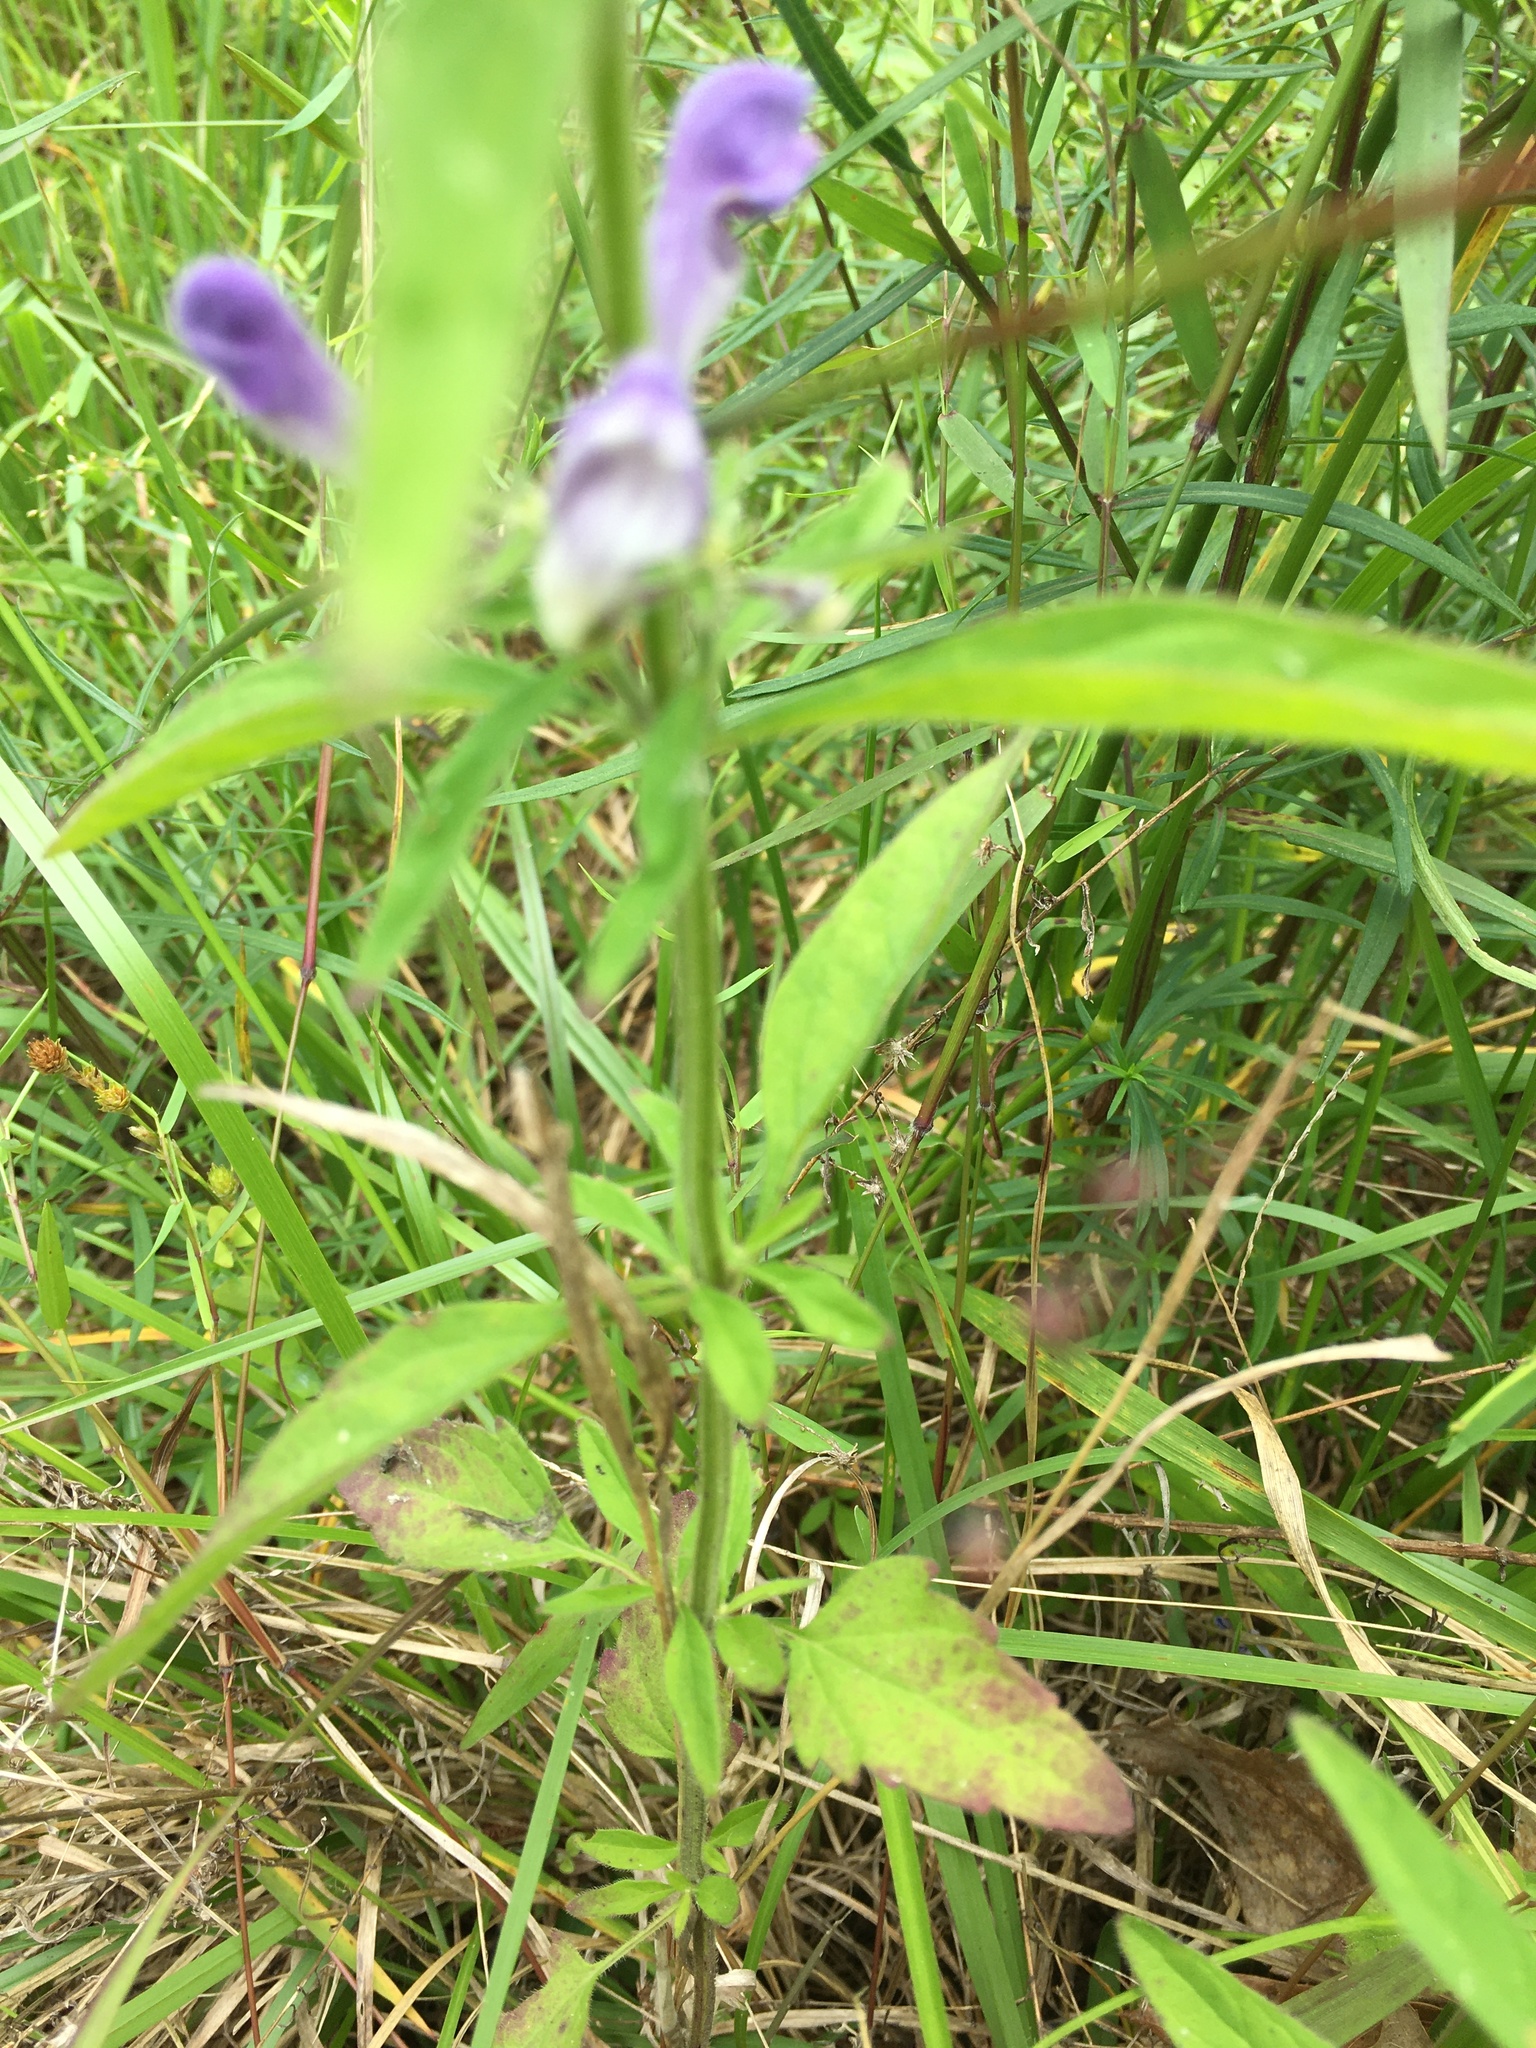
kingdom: Plantae
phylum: Tracheophyta
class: Magnoliopsida
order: Lamiales
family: Lamiaceae
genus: Scutellaria
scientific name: Scutellaria integrifolia
